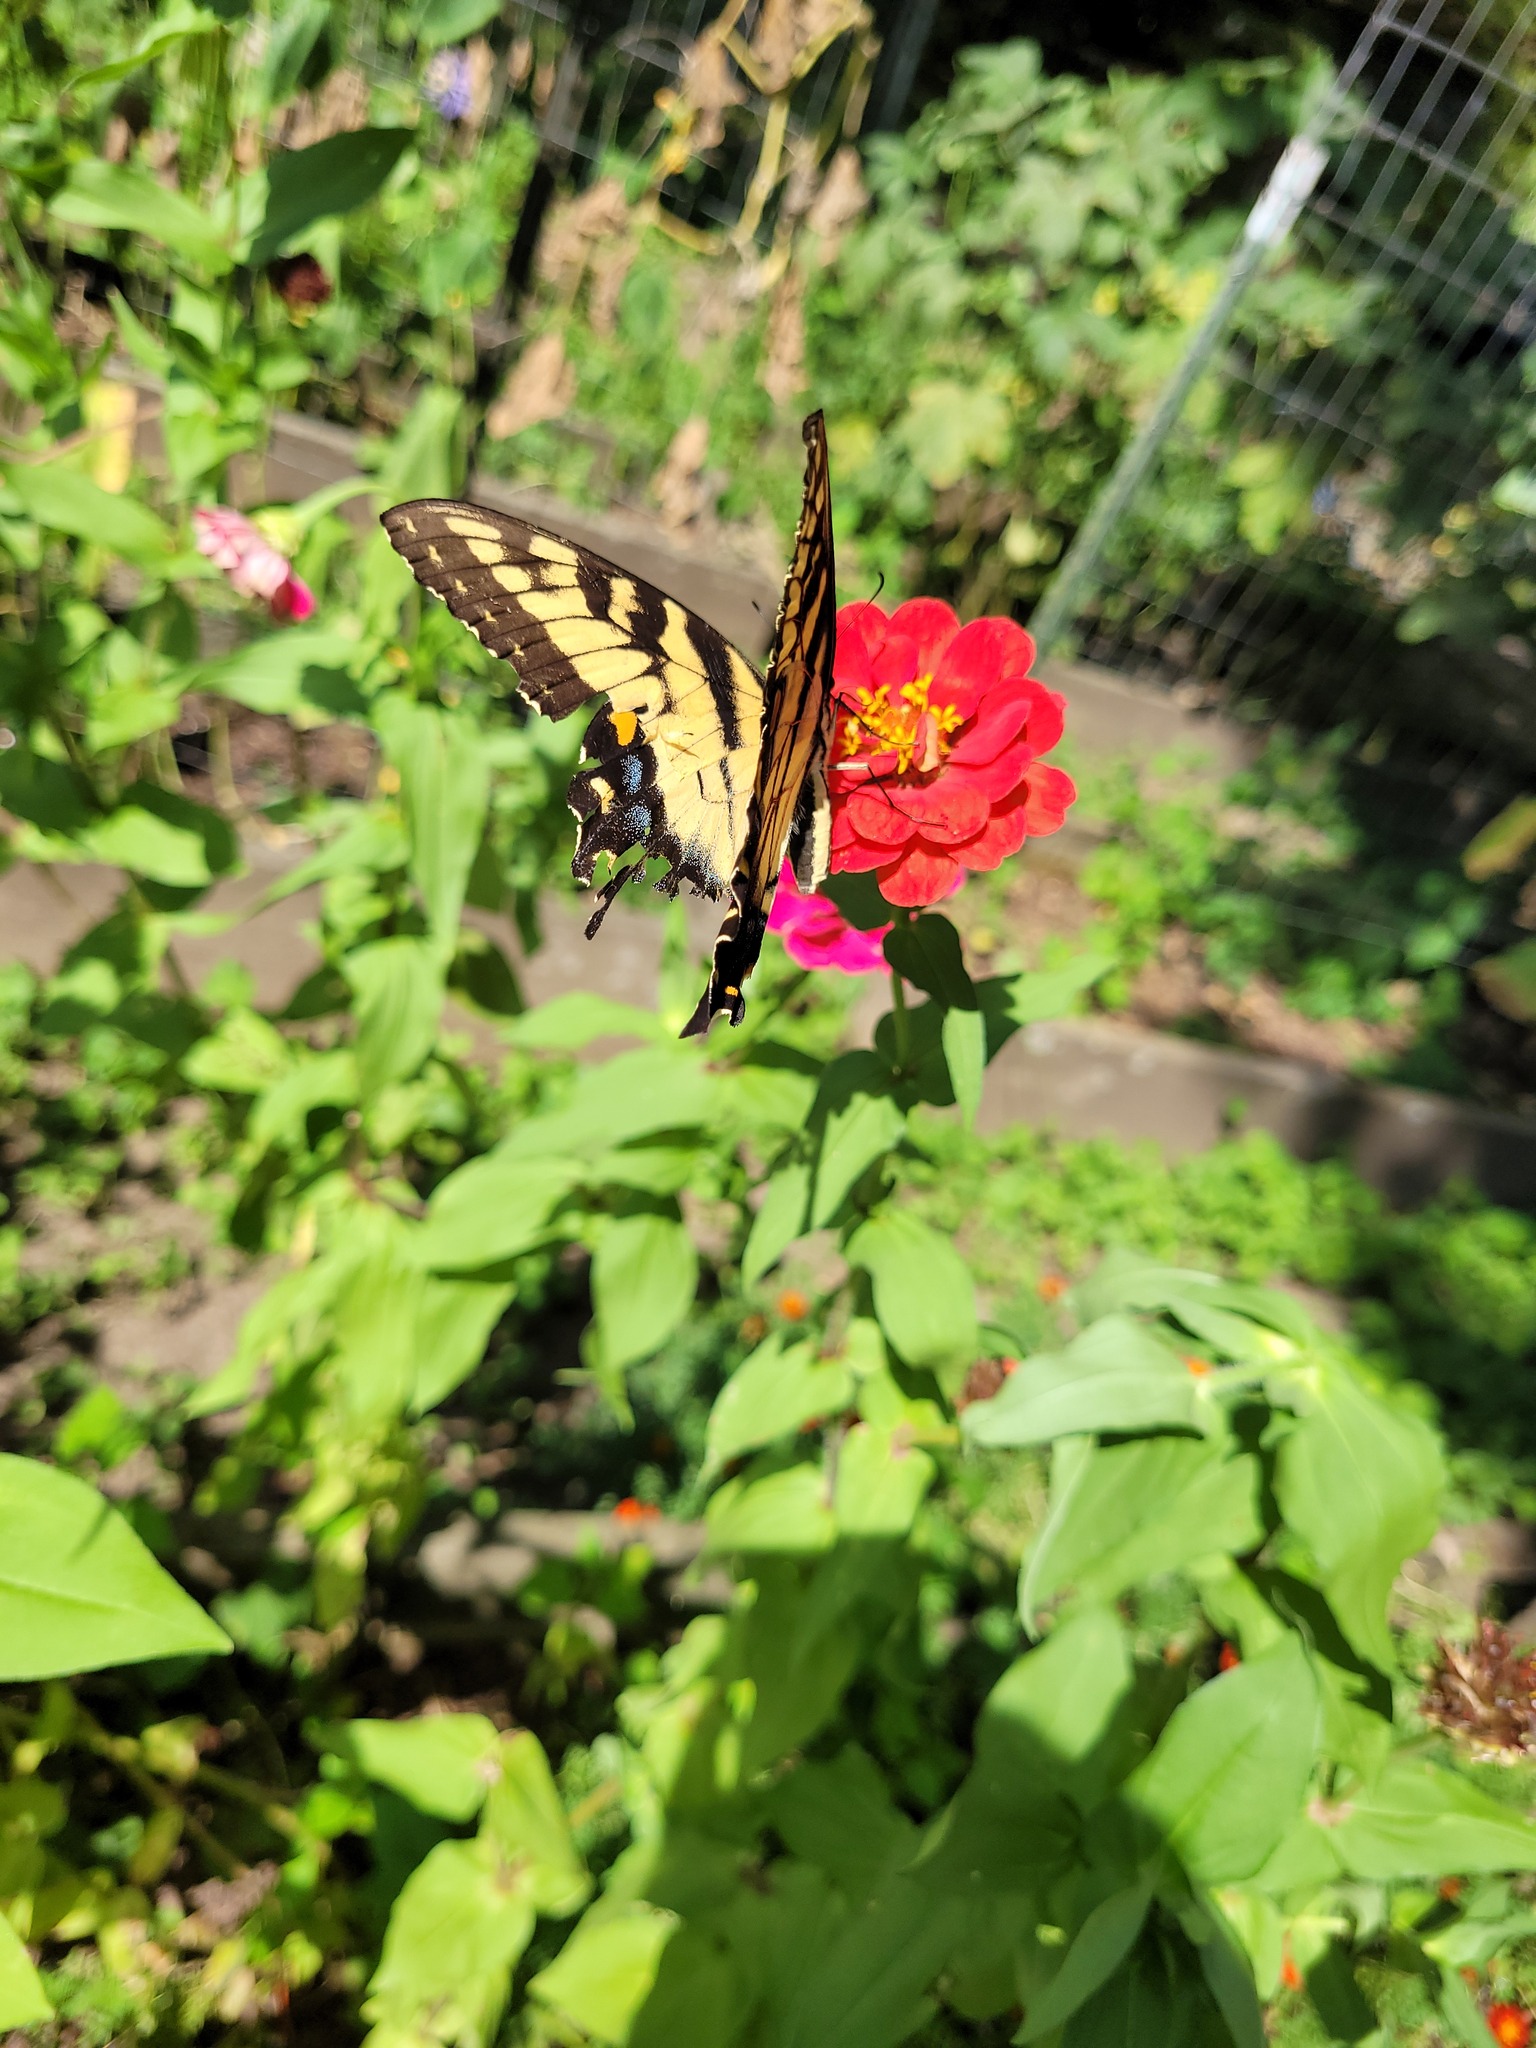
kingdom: Animalia
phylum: Arthropoda
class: Insecta
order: Lepidoptera
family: Papilionidae
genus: Papilio
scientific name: Papilio glaucus
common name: Tiger swallowtail
